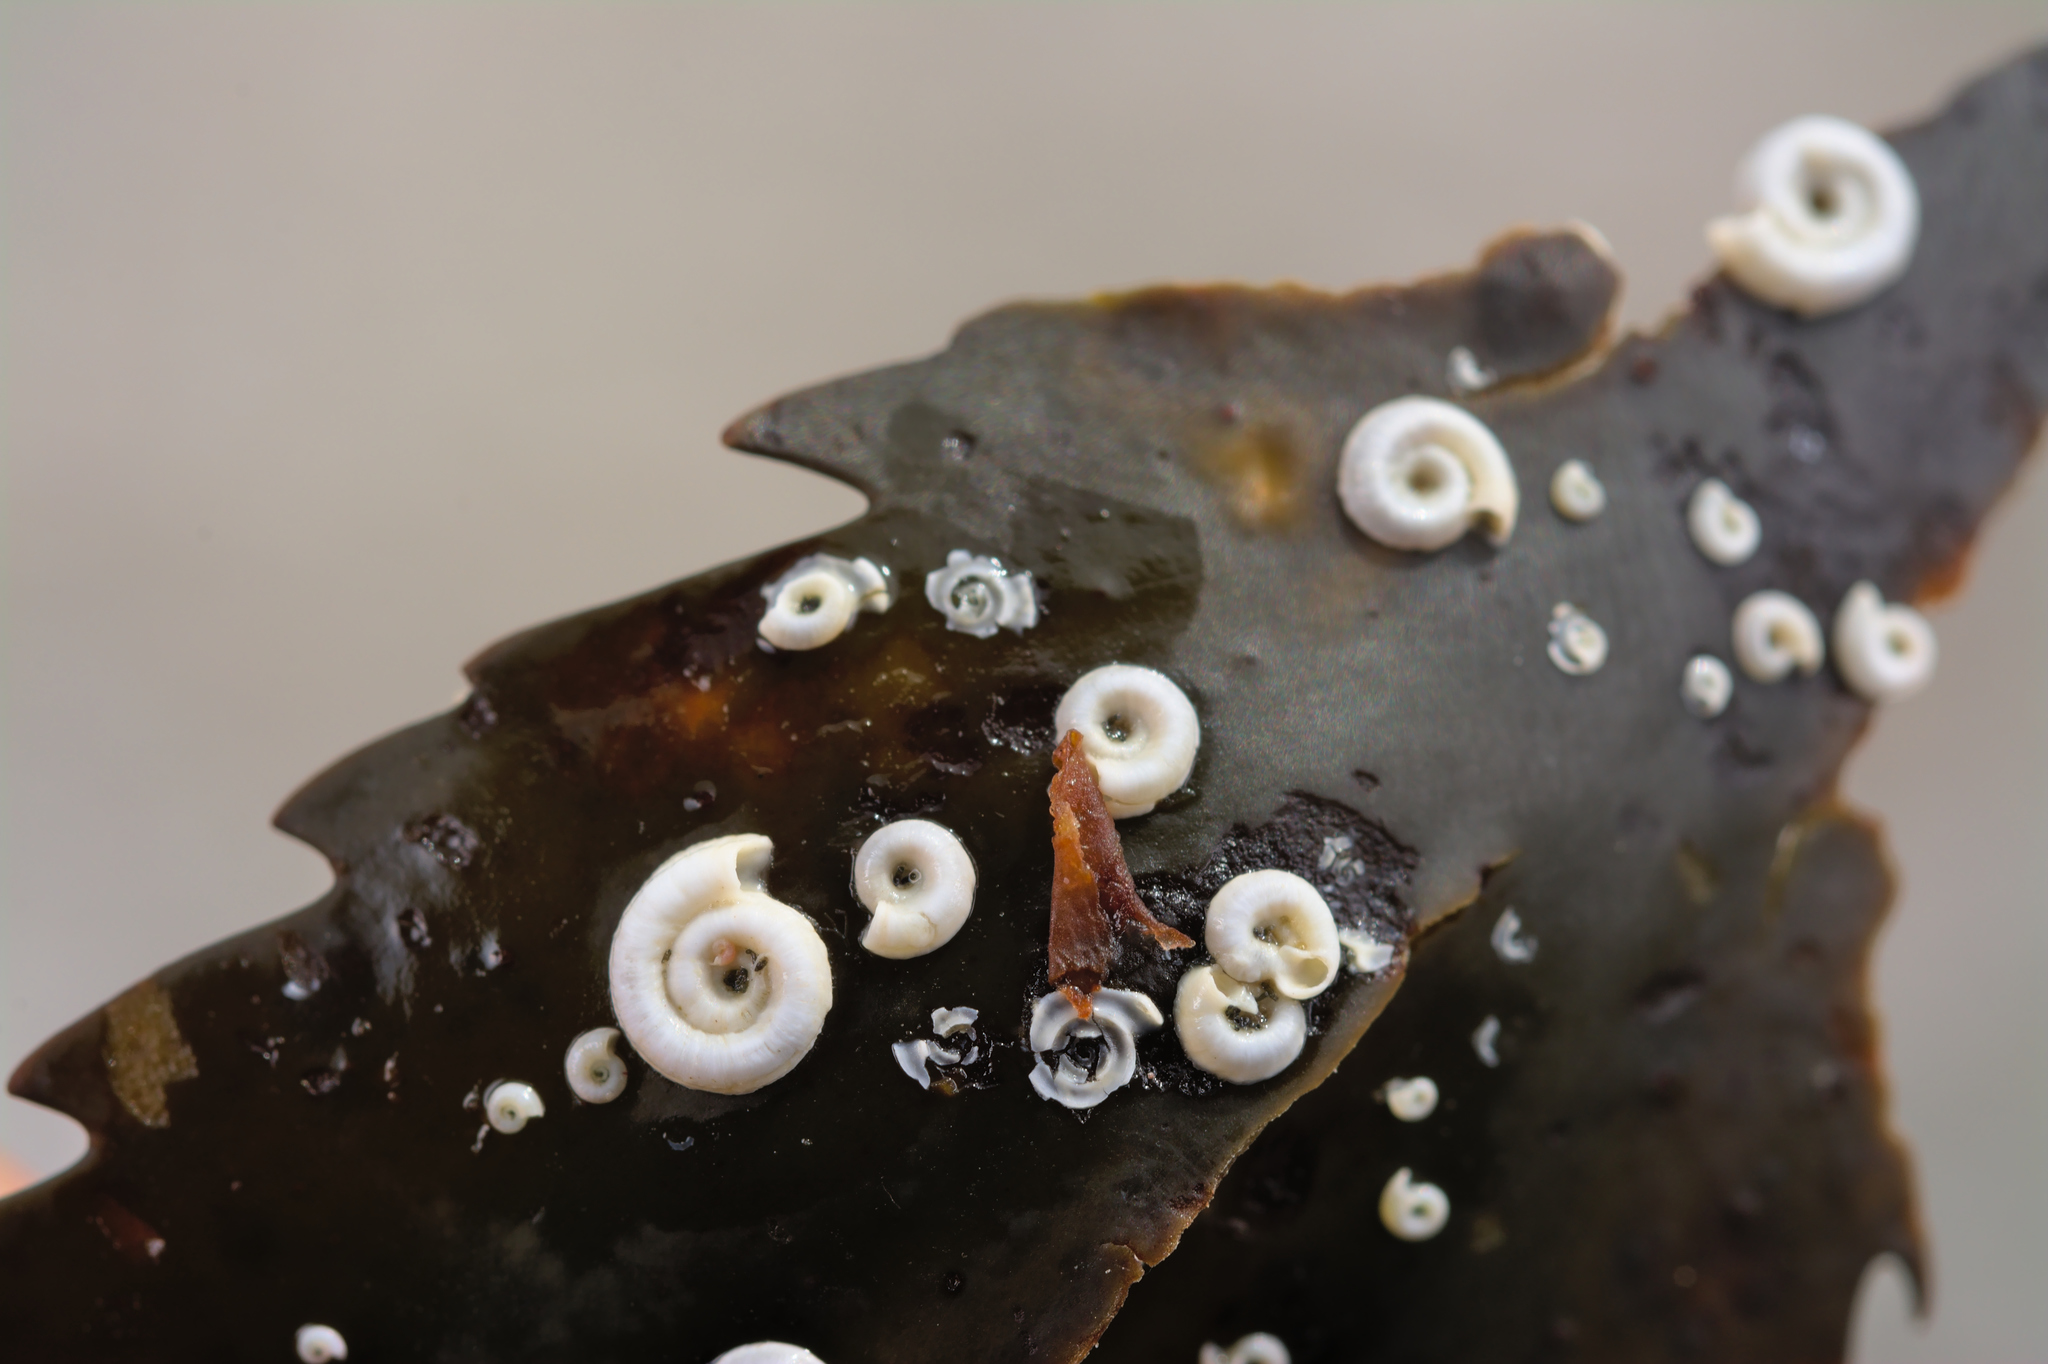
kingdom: Animalia
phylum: Annelida
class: Polychaeta
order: Sabellida
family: Serpulidae
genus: Spirorbis
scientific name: Spirorbis spirorbis
